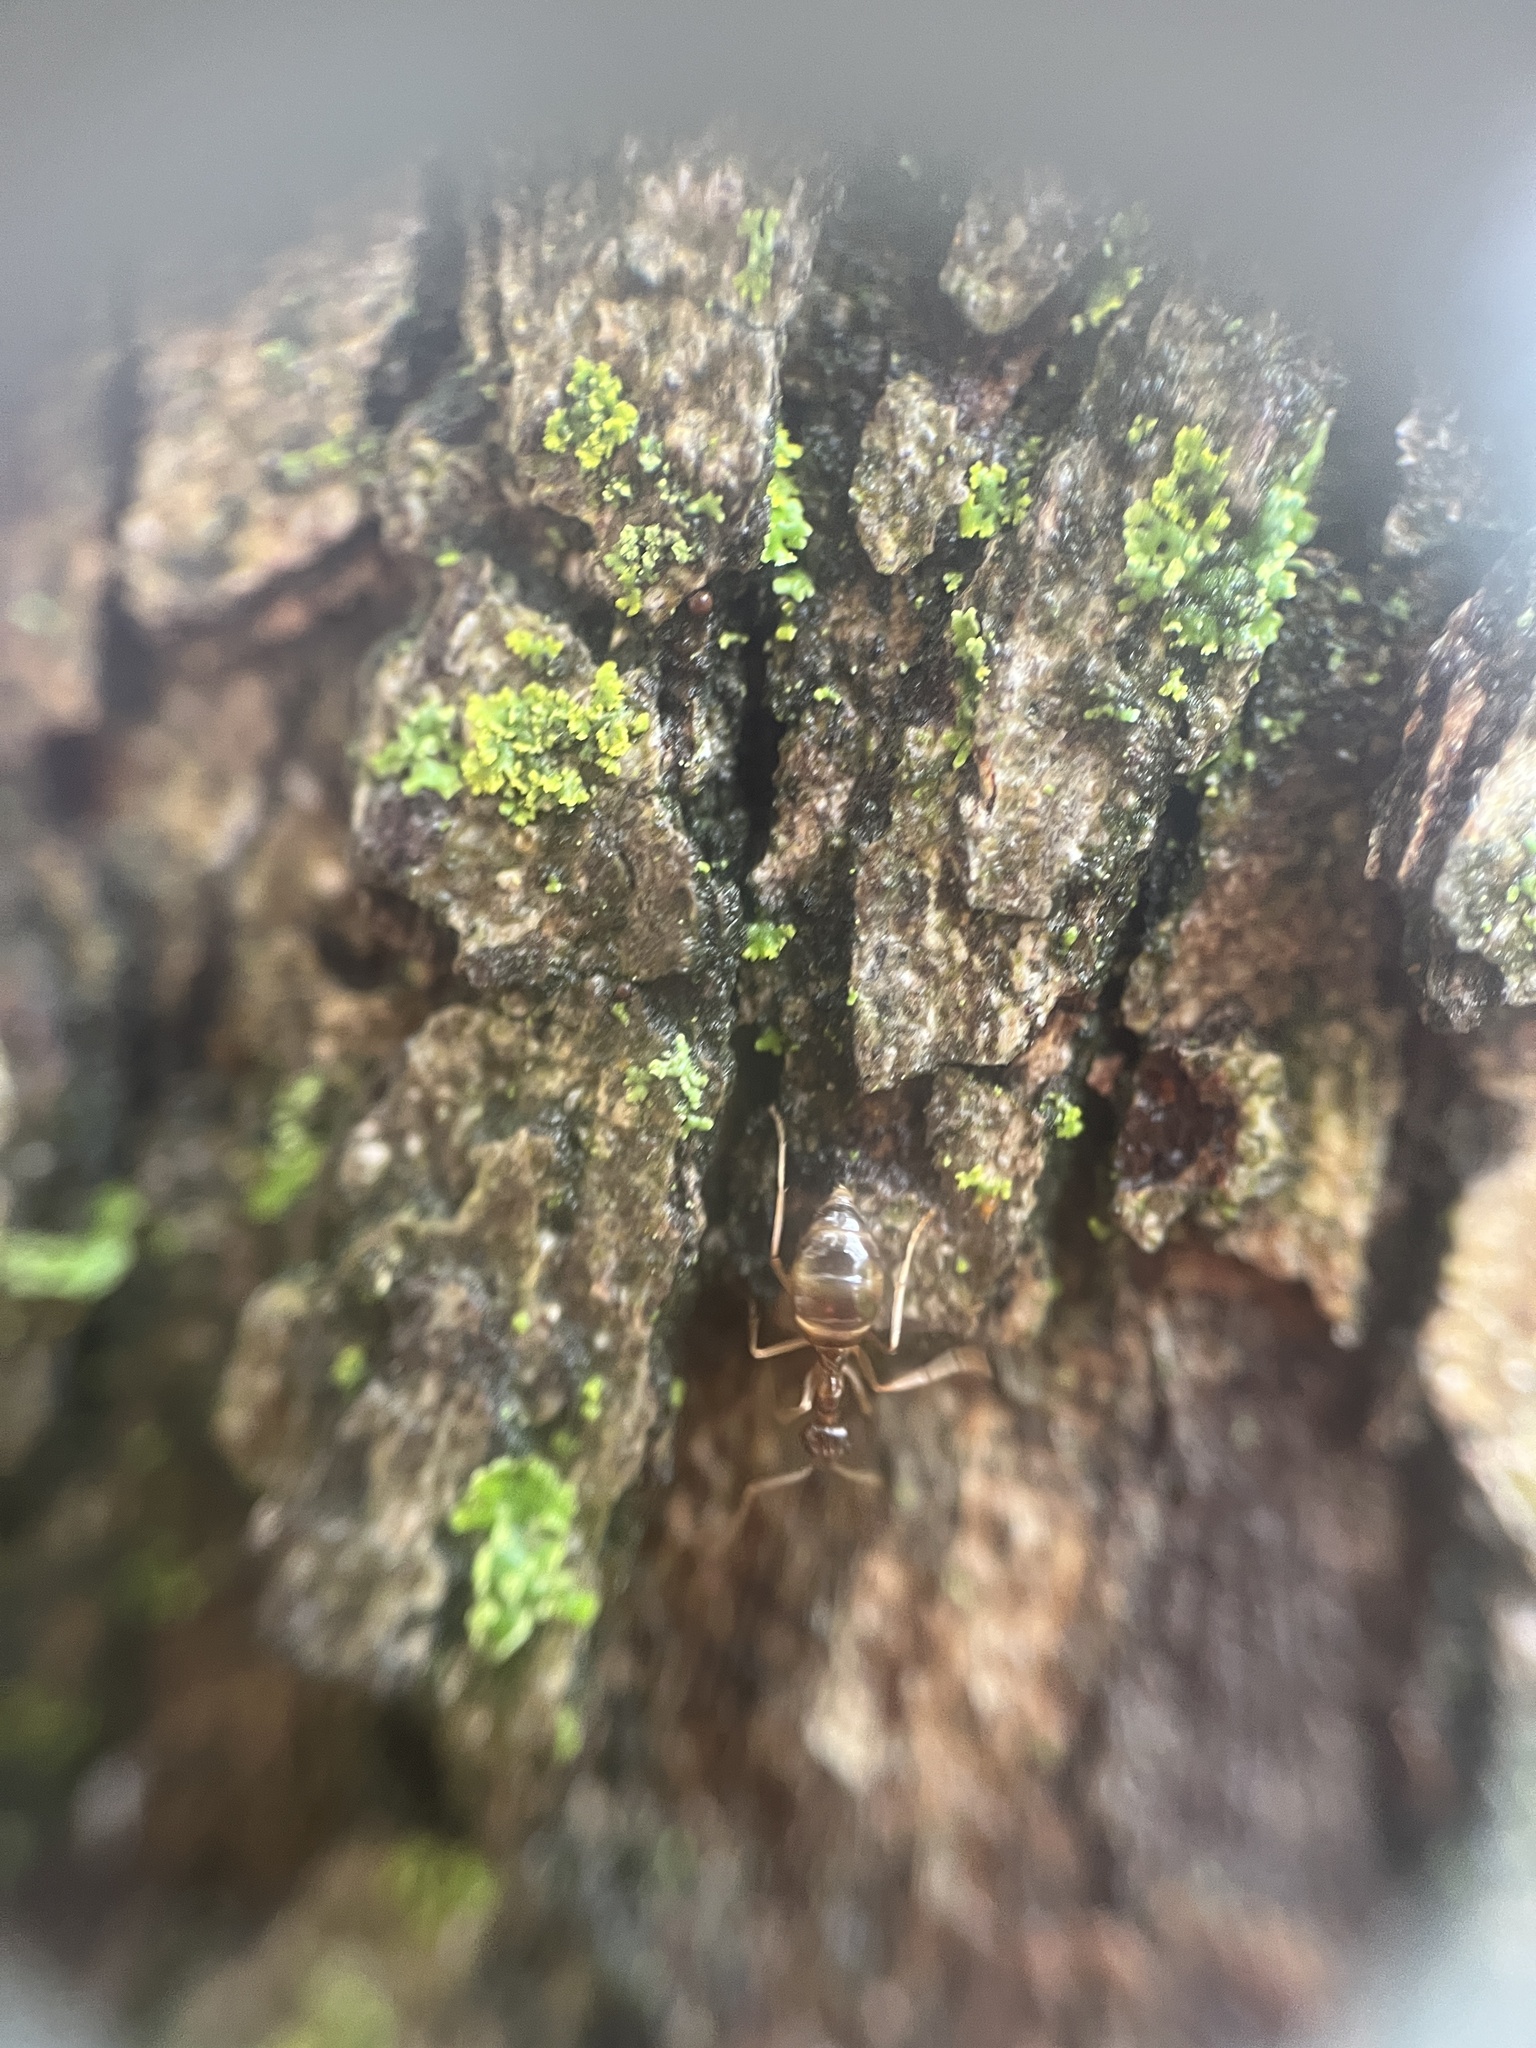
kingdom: Animalia
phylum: Arthropoda
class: Insecta
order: Hymenoptera
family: Formicidae
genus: Prenolepis
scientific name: Prenolepis imparis
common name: Small honey ant
